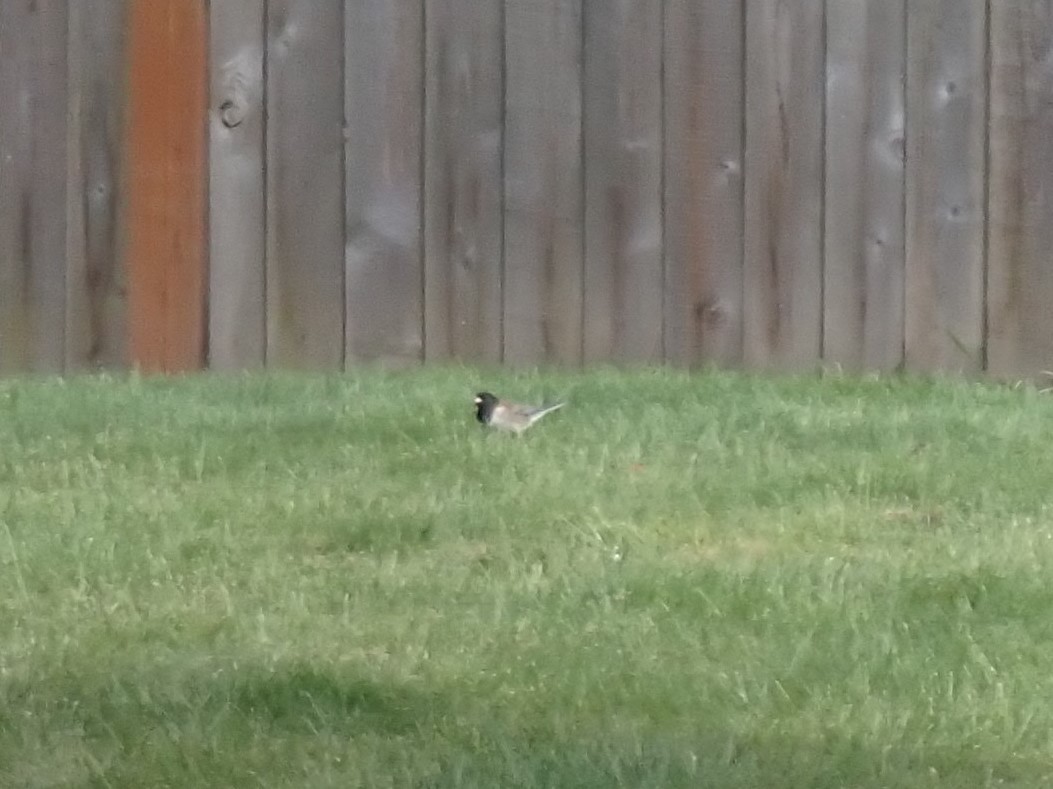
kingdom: Animalia
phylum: Chordata
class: Aves
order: Passeriformes
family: Passerellidae
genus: Junco
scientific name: Junco hyemalis
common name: Dark-eyed junco
